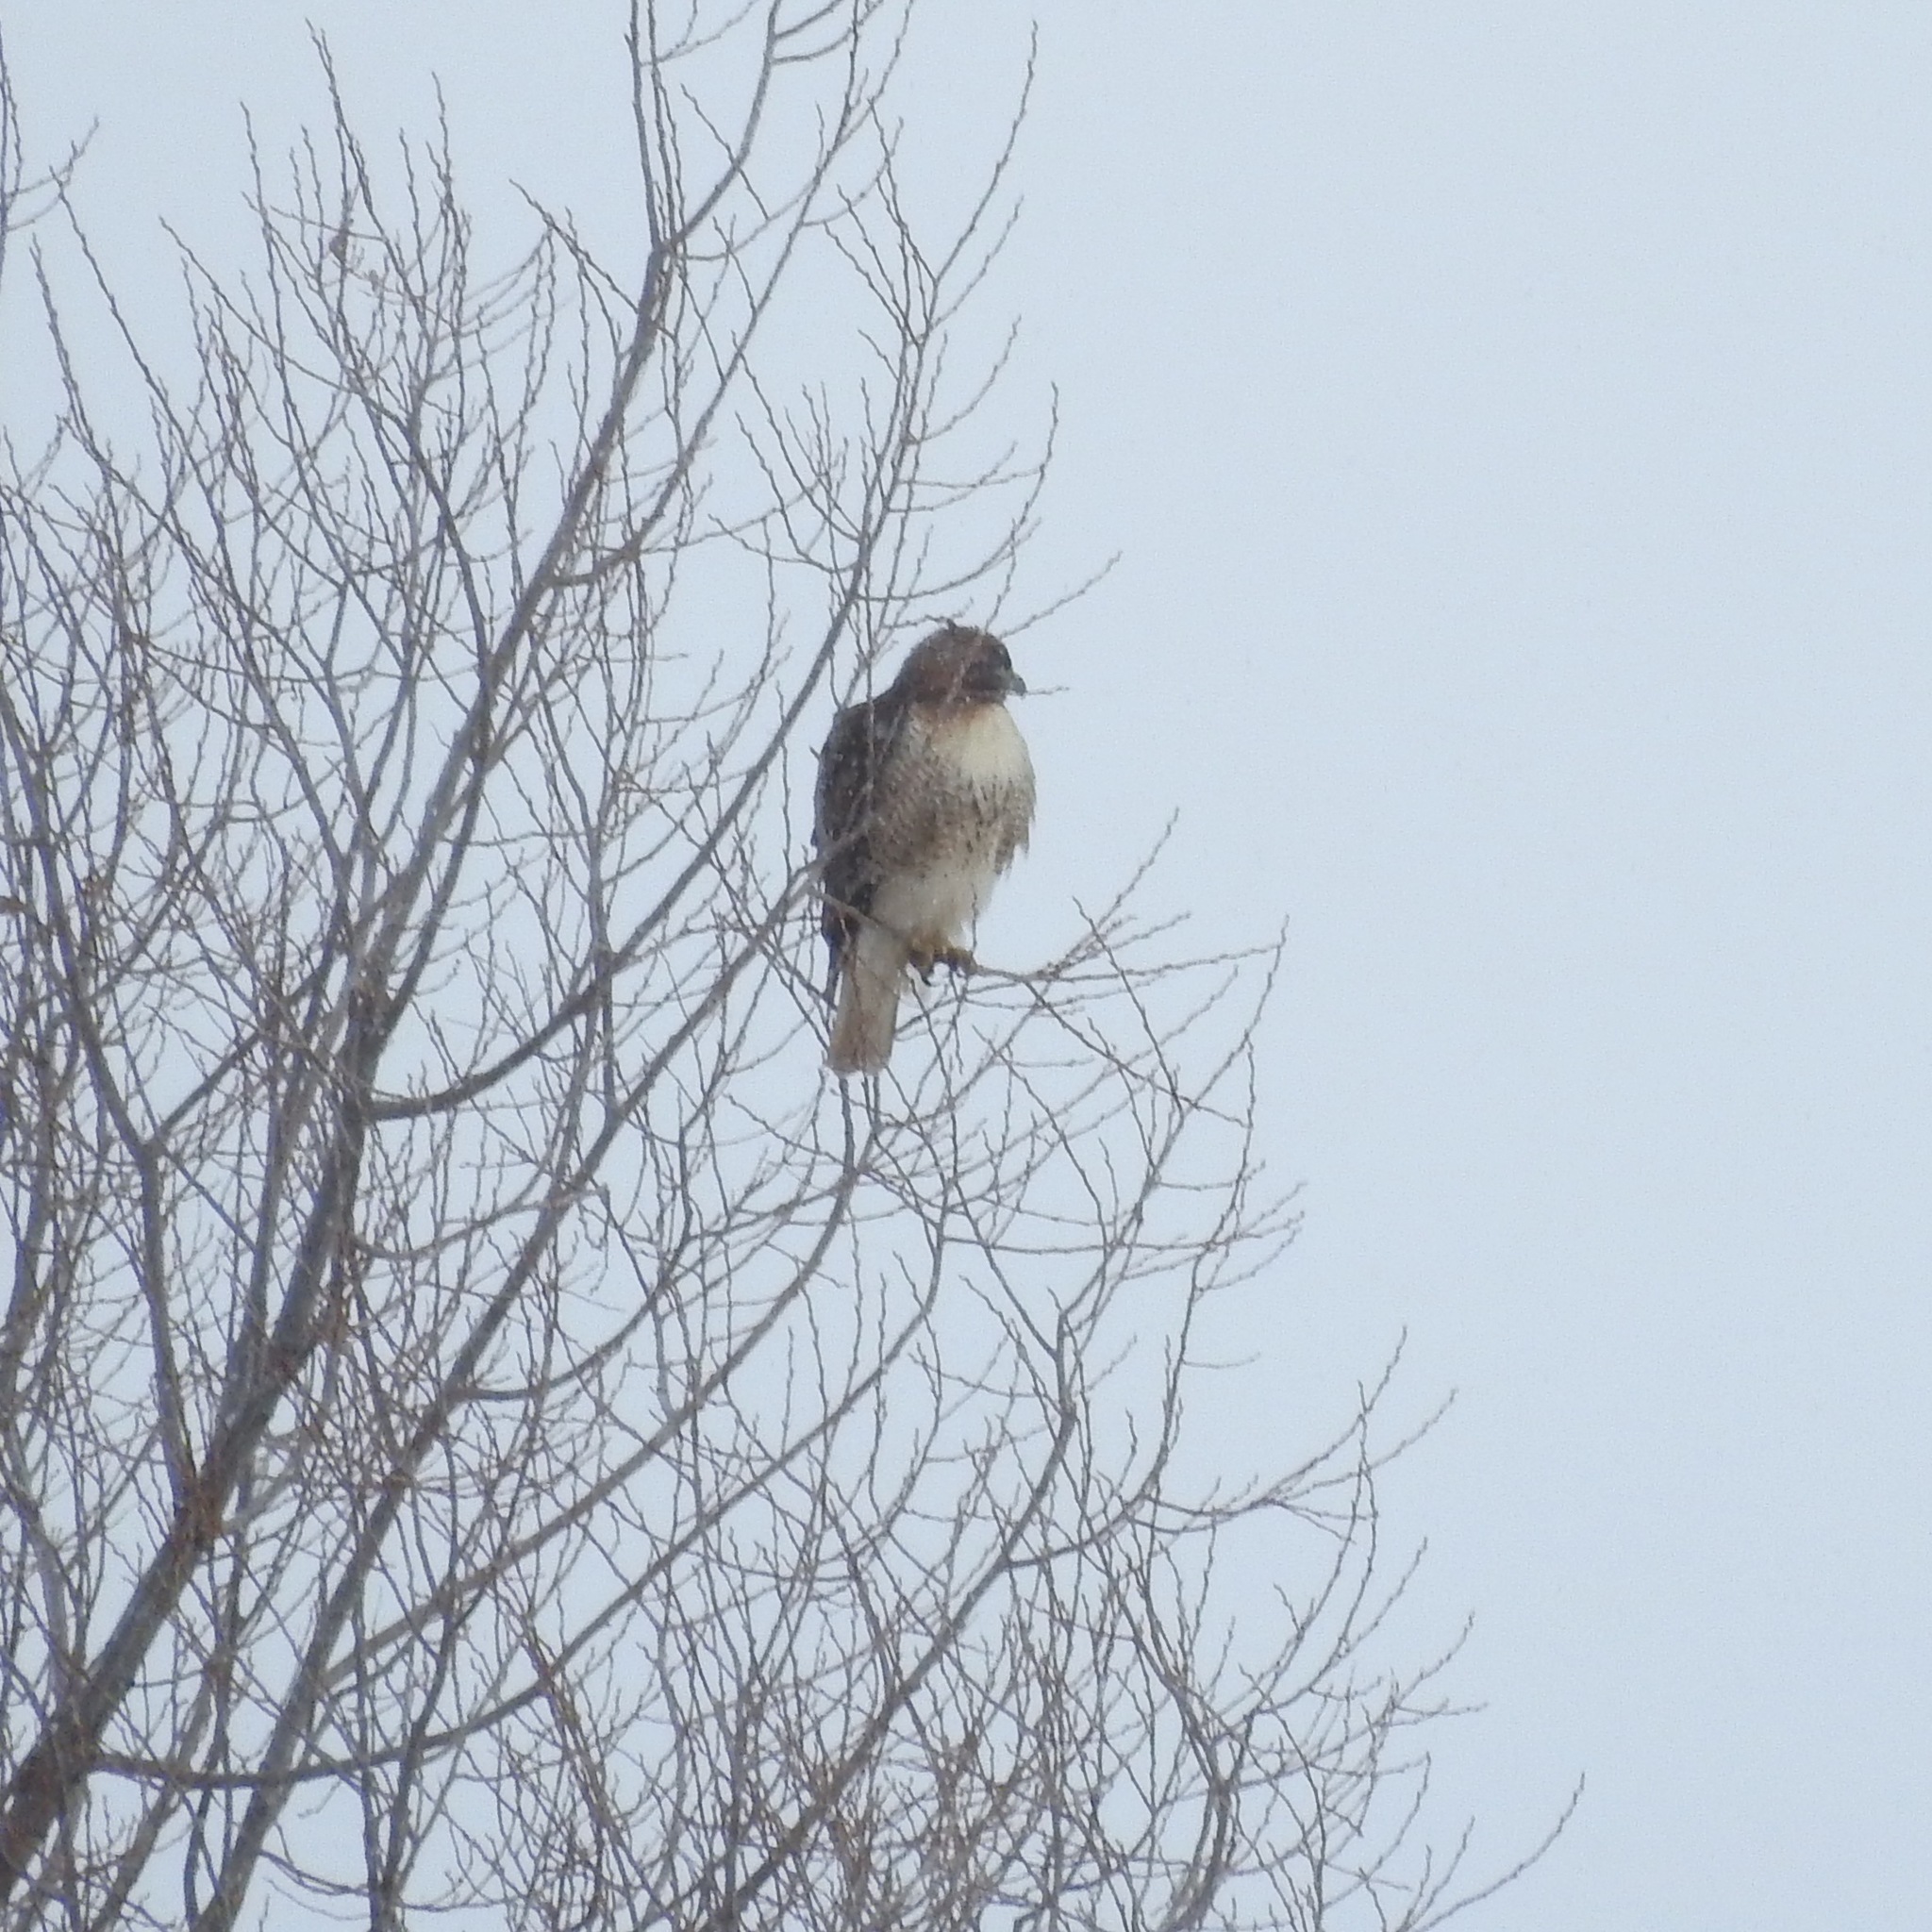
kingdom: Animalia
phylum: Chordata
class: Aves
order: Accipitriformes
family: Accipitridae
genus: Buteo
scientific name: Buteo jamaicensis
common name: Red-tailed hawk
